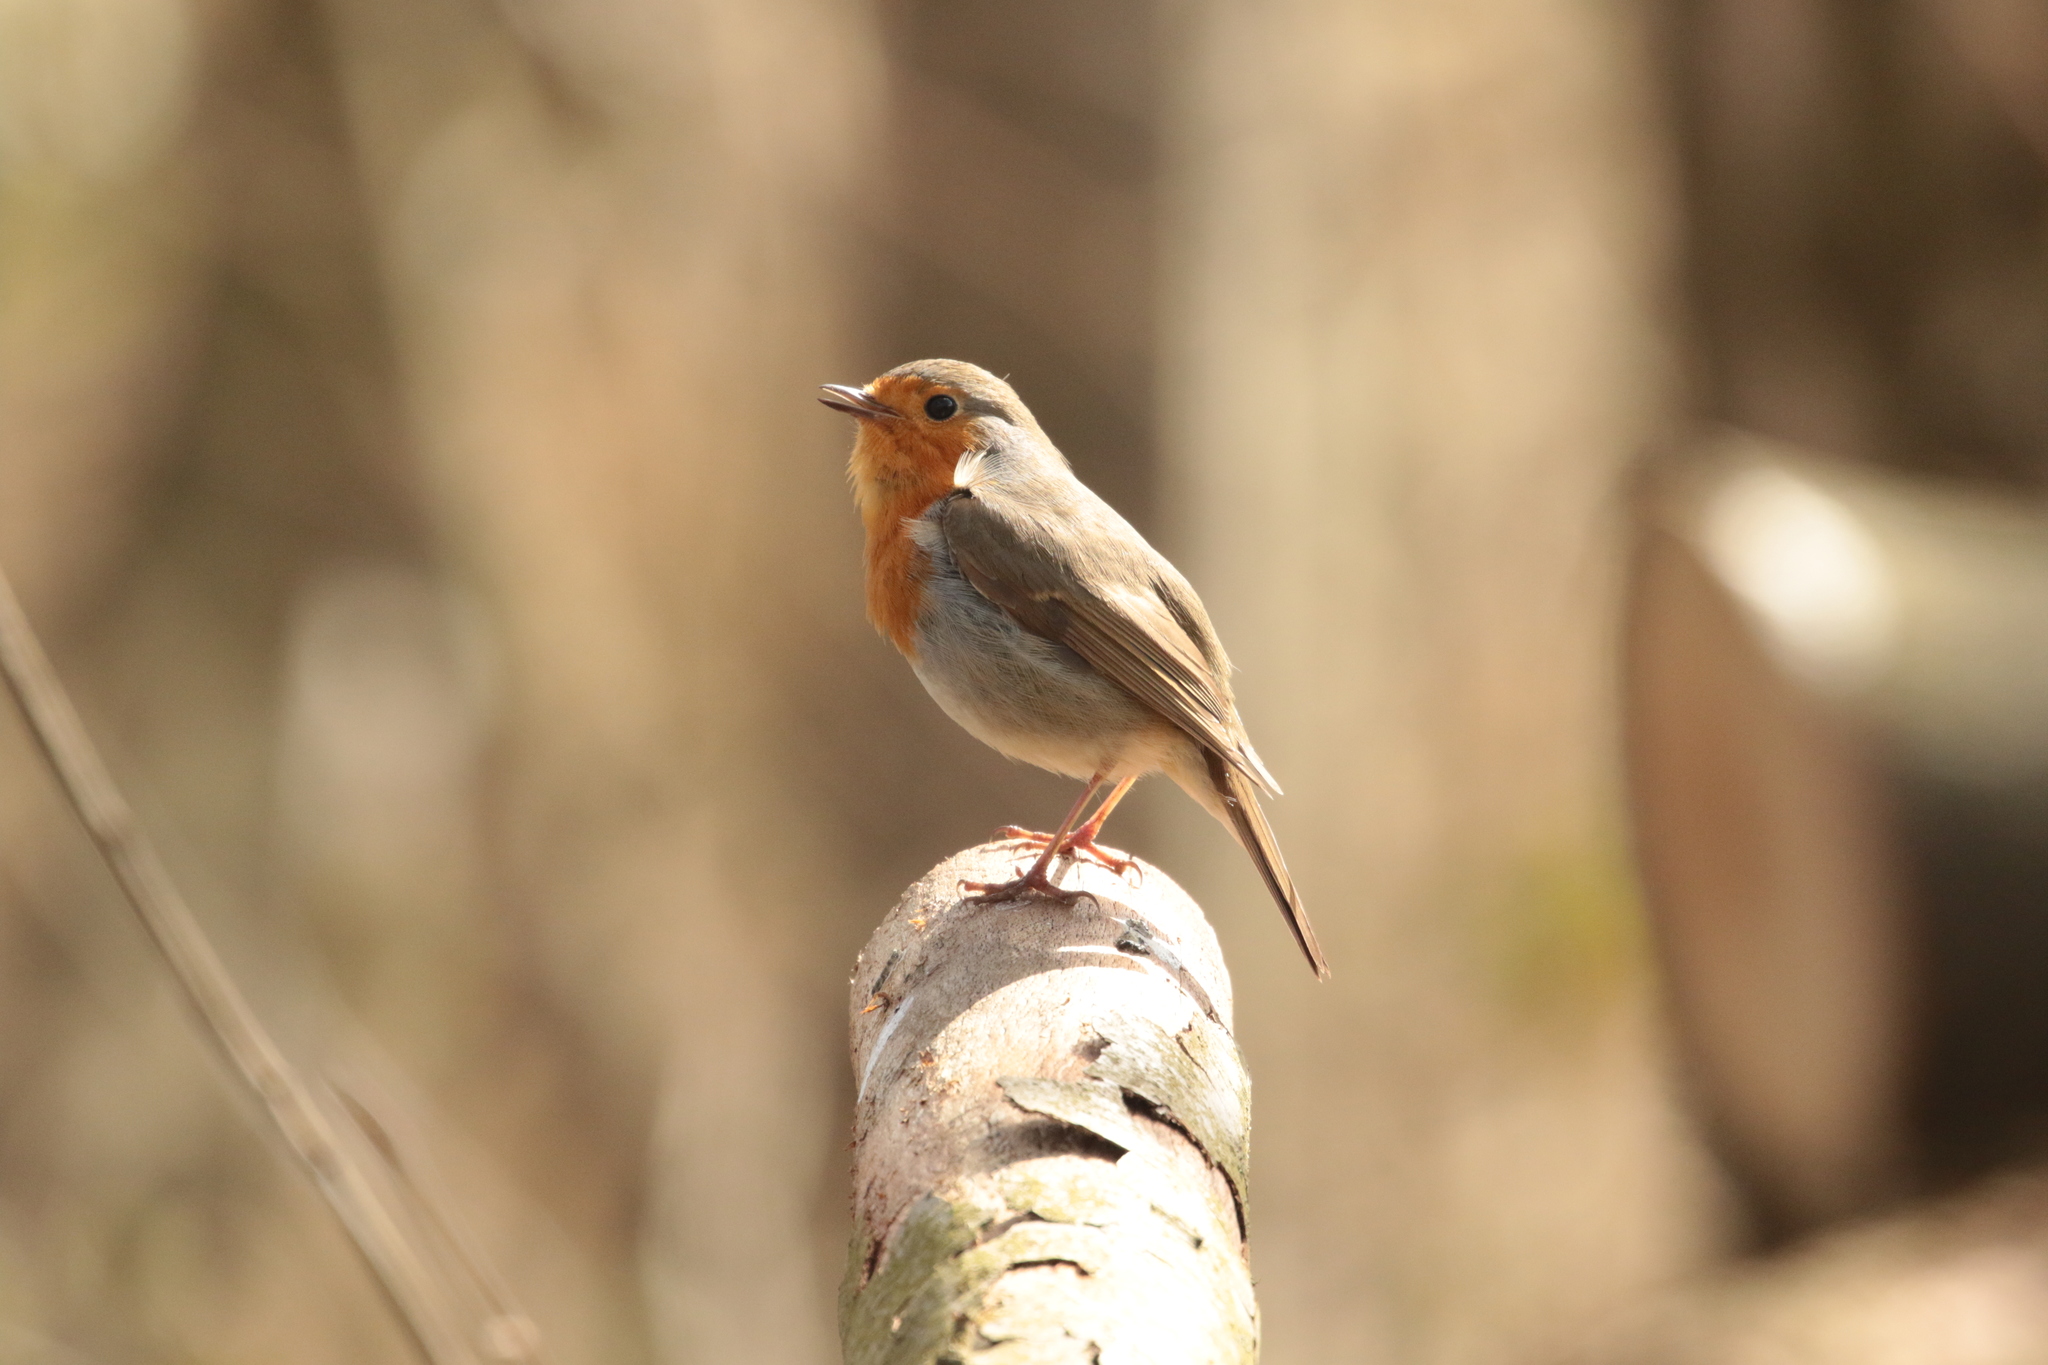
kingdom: Animalia
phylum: Chordata
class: Aves
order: Passeriformes
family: Muscicapidae
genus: Erithacus
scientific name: Erithacus rubecula
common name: European robin
